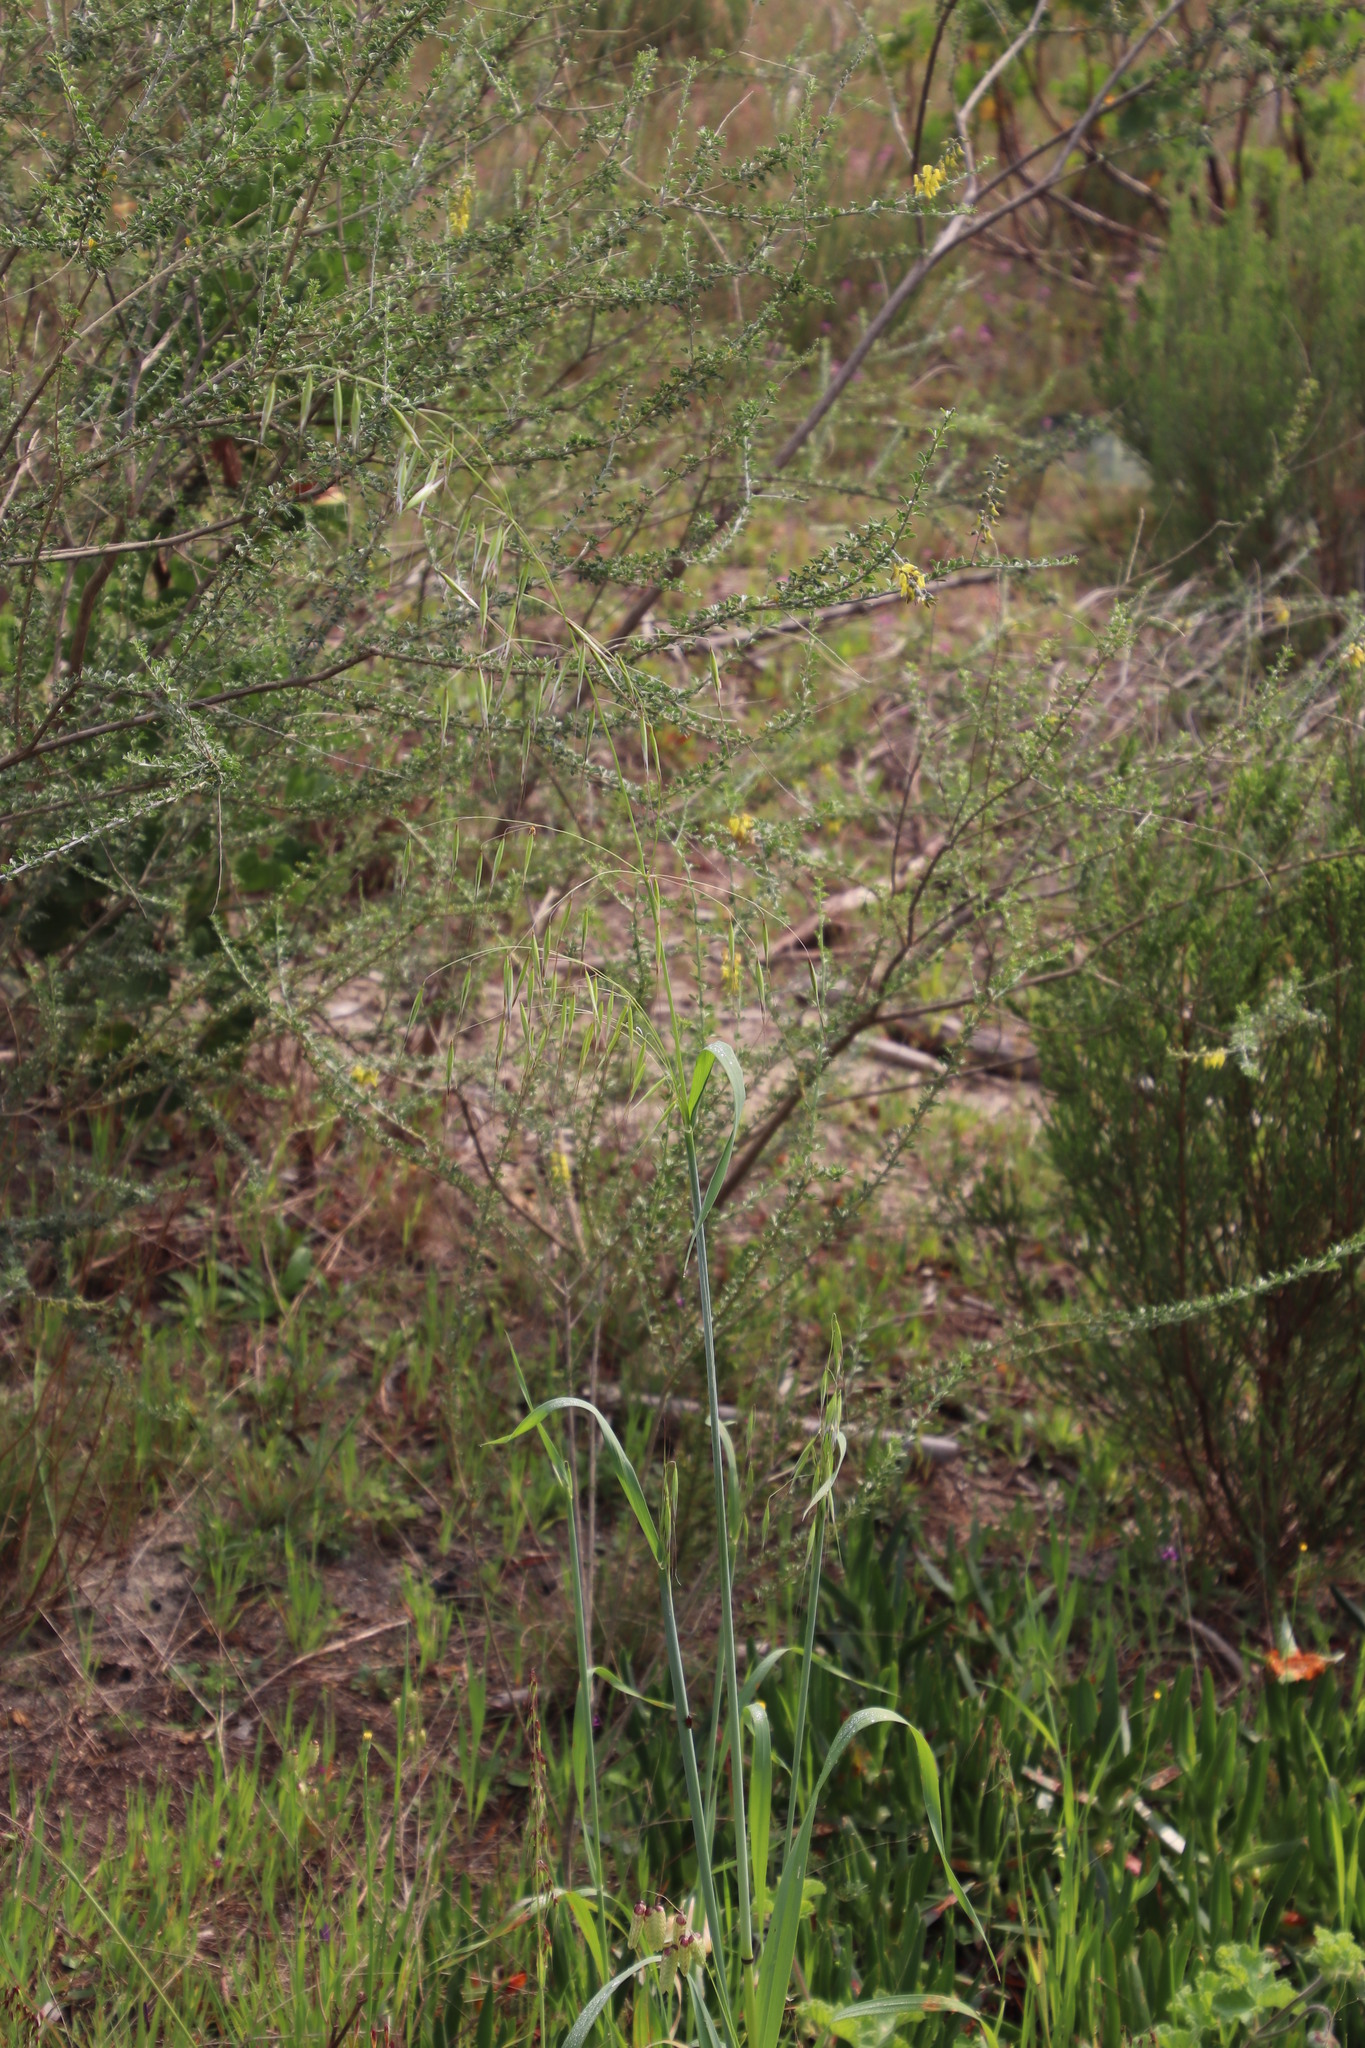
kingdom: Plantae
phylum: Tracheophyta
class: Liliopsida
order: Poales
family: Poaceae
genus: Avena
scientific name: Avena fatua
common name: Wild oat
